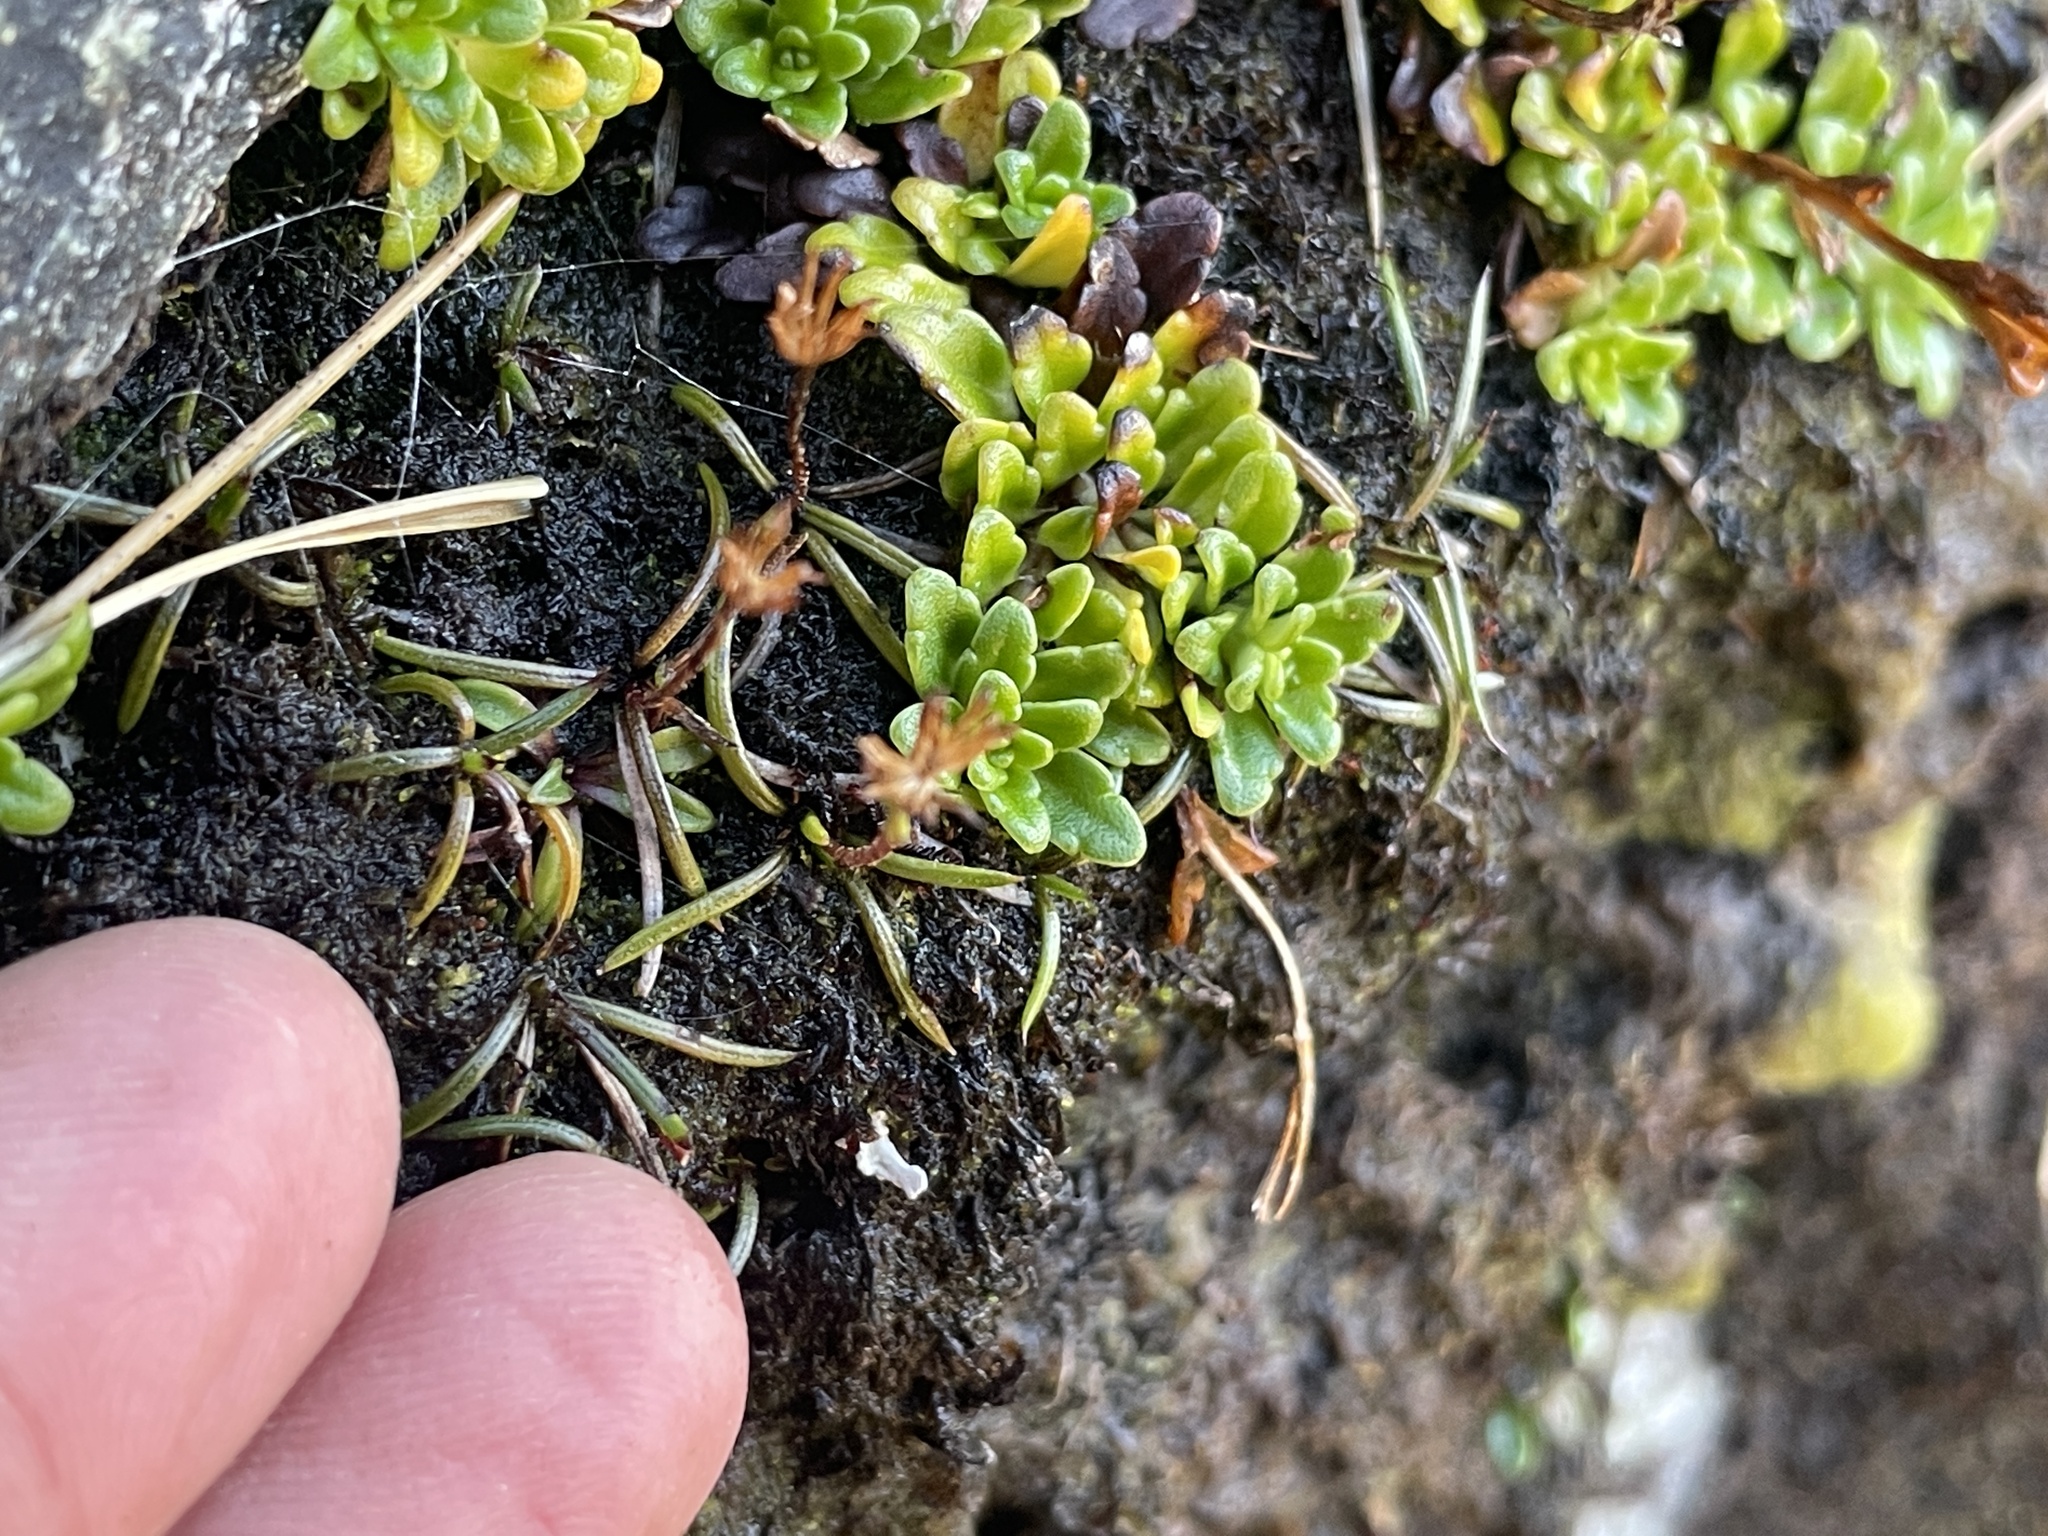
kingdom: Plantae
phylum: Tracheophyta
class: Magnoliopsida
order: Lamiales
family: Plantaginaceae
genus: Ourisia
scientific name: Ourisia caespitosa
